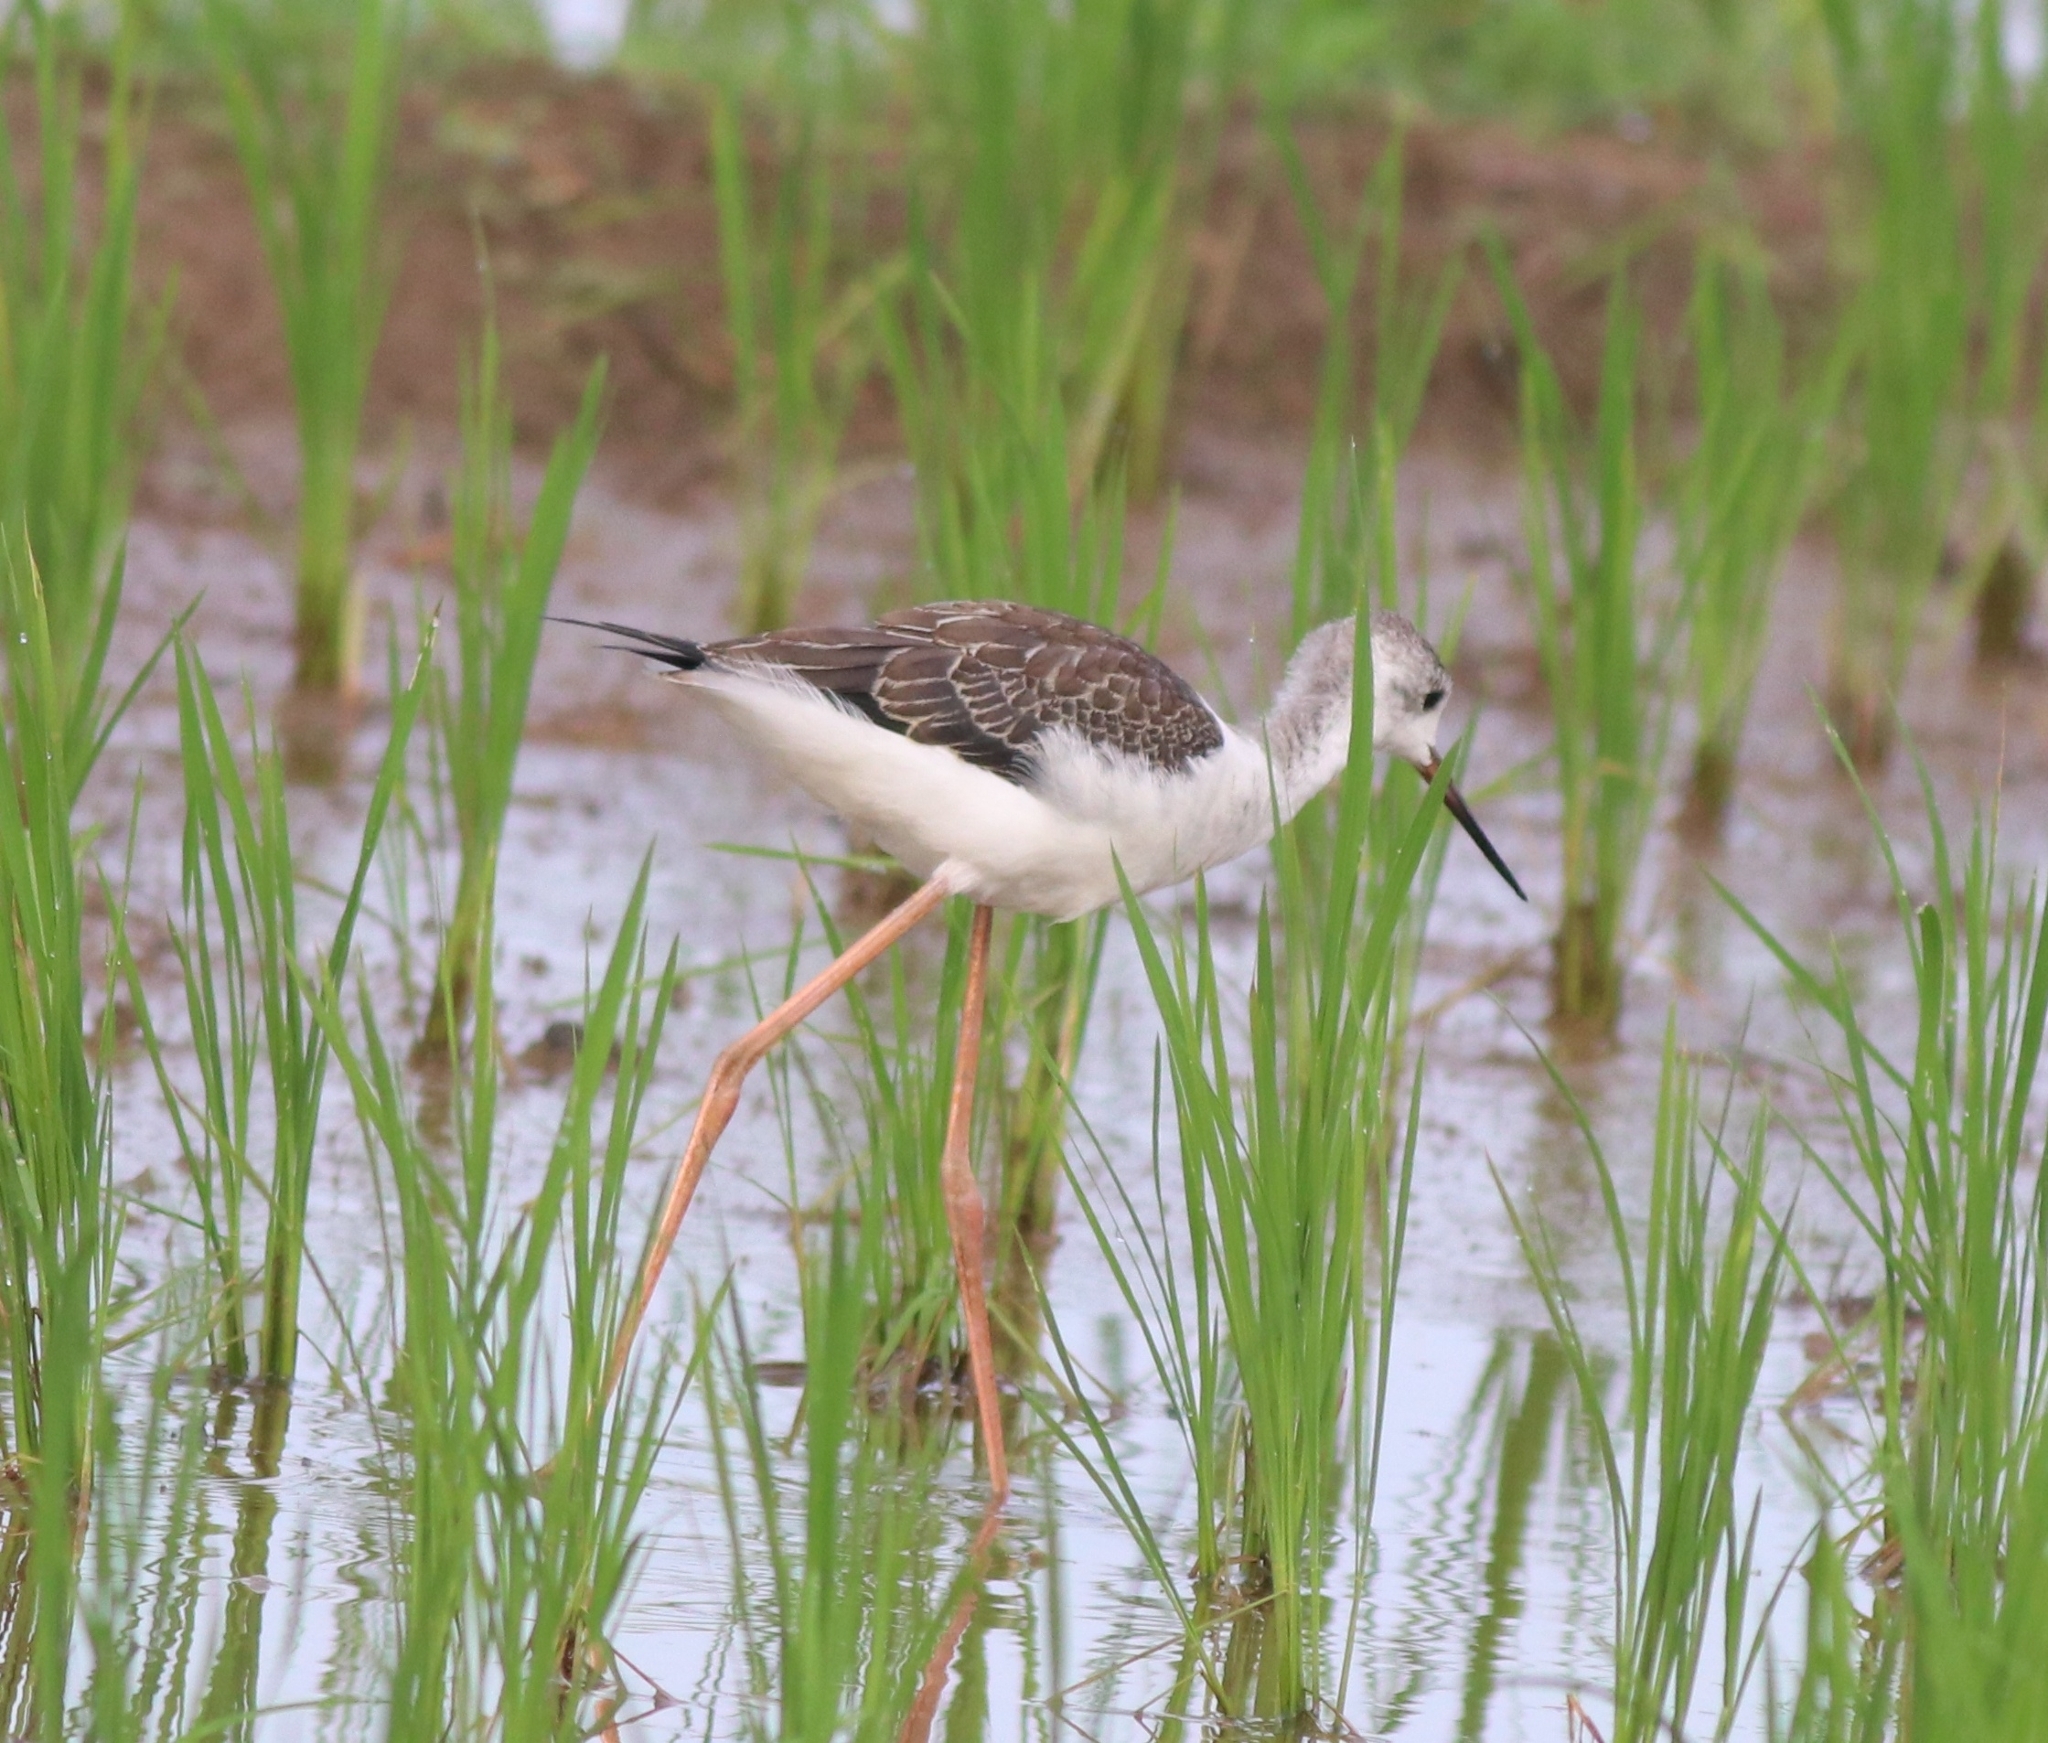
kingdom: Animalia
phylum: Chordata
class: Aves
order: Charadriiformes
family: Recurvirostridae
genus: Himantopus
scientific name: Himantopus himantopus
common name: Black-winged stilt
